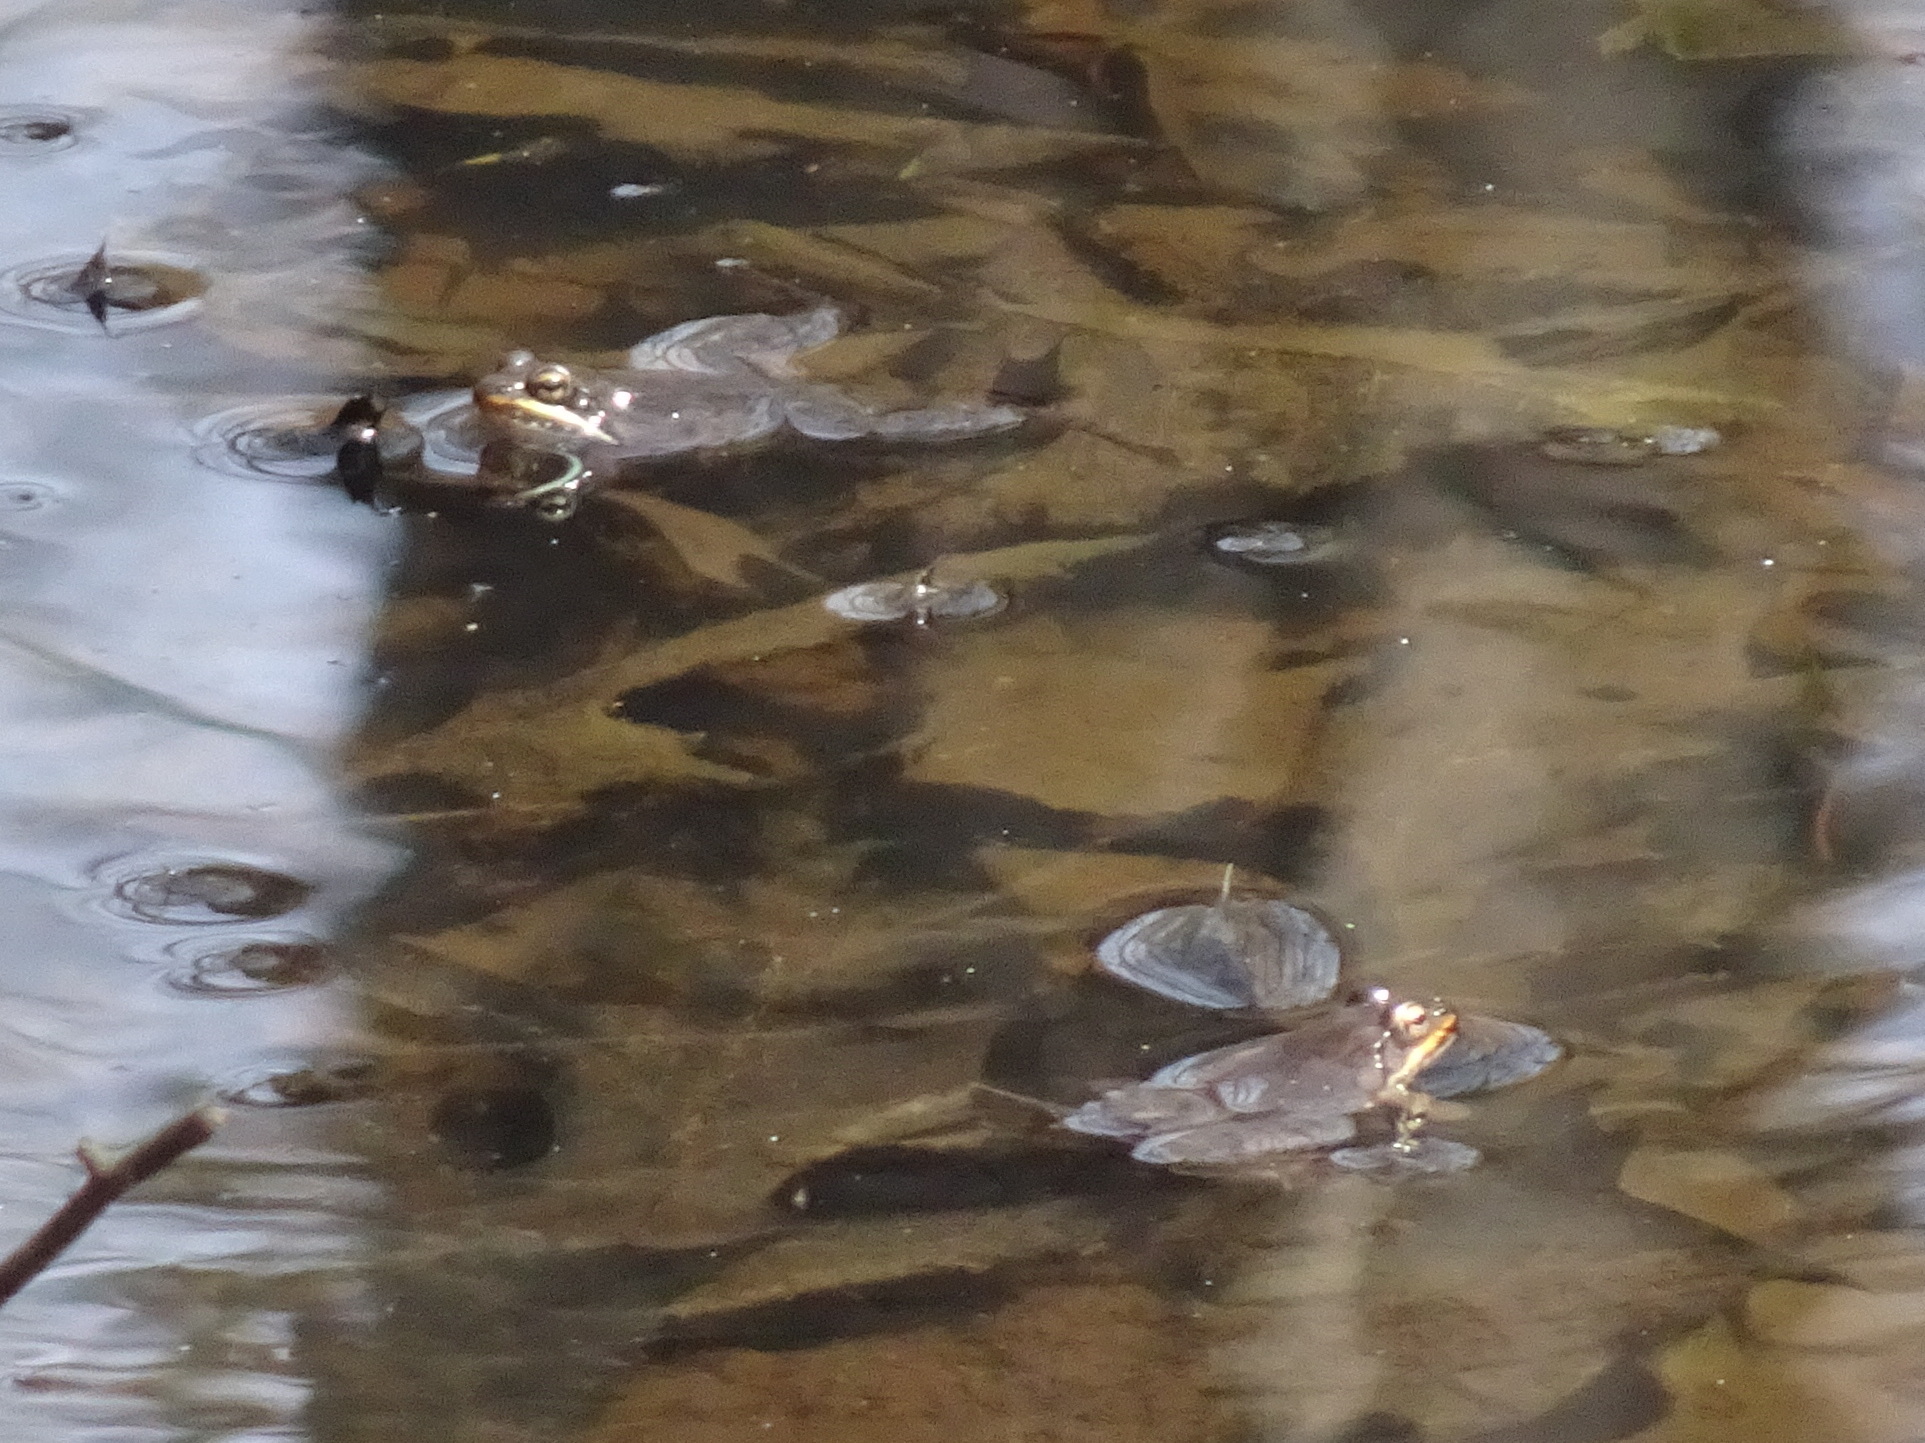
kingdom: Animalia
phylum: Chordata
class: Amphibia
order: Anura
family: Ranidae
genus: Lithobates
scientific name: Lithobates sylvaticus
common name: Wood frog
